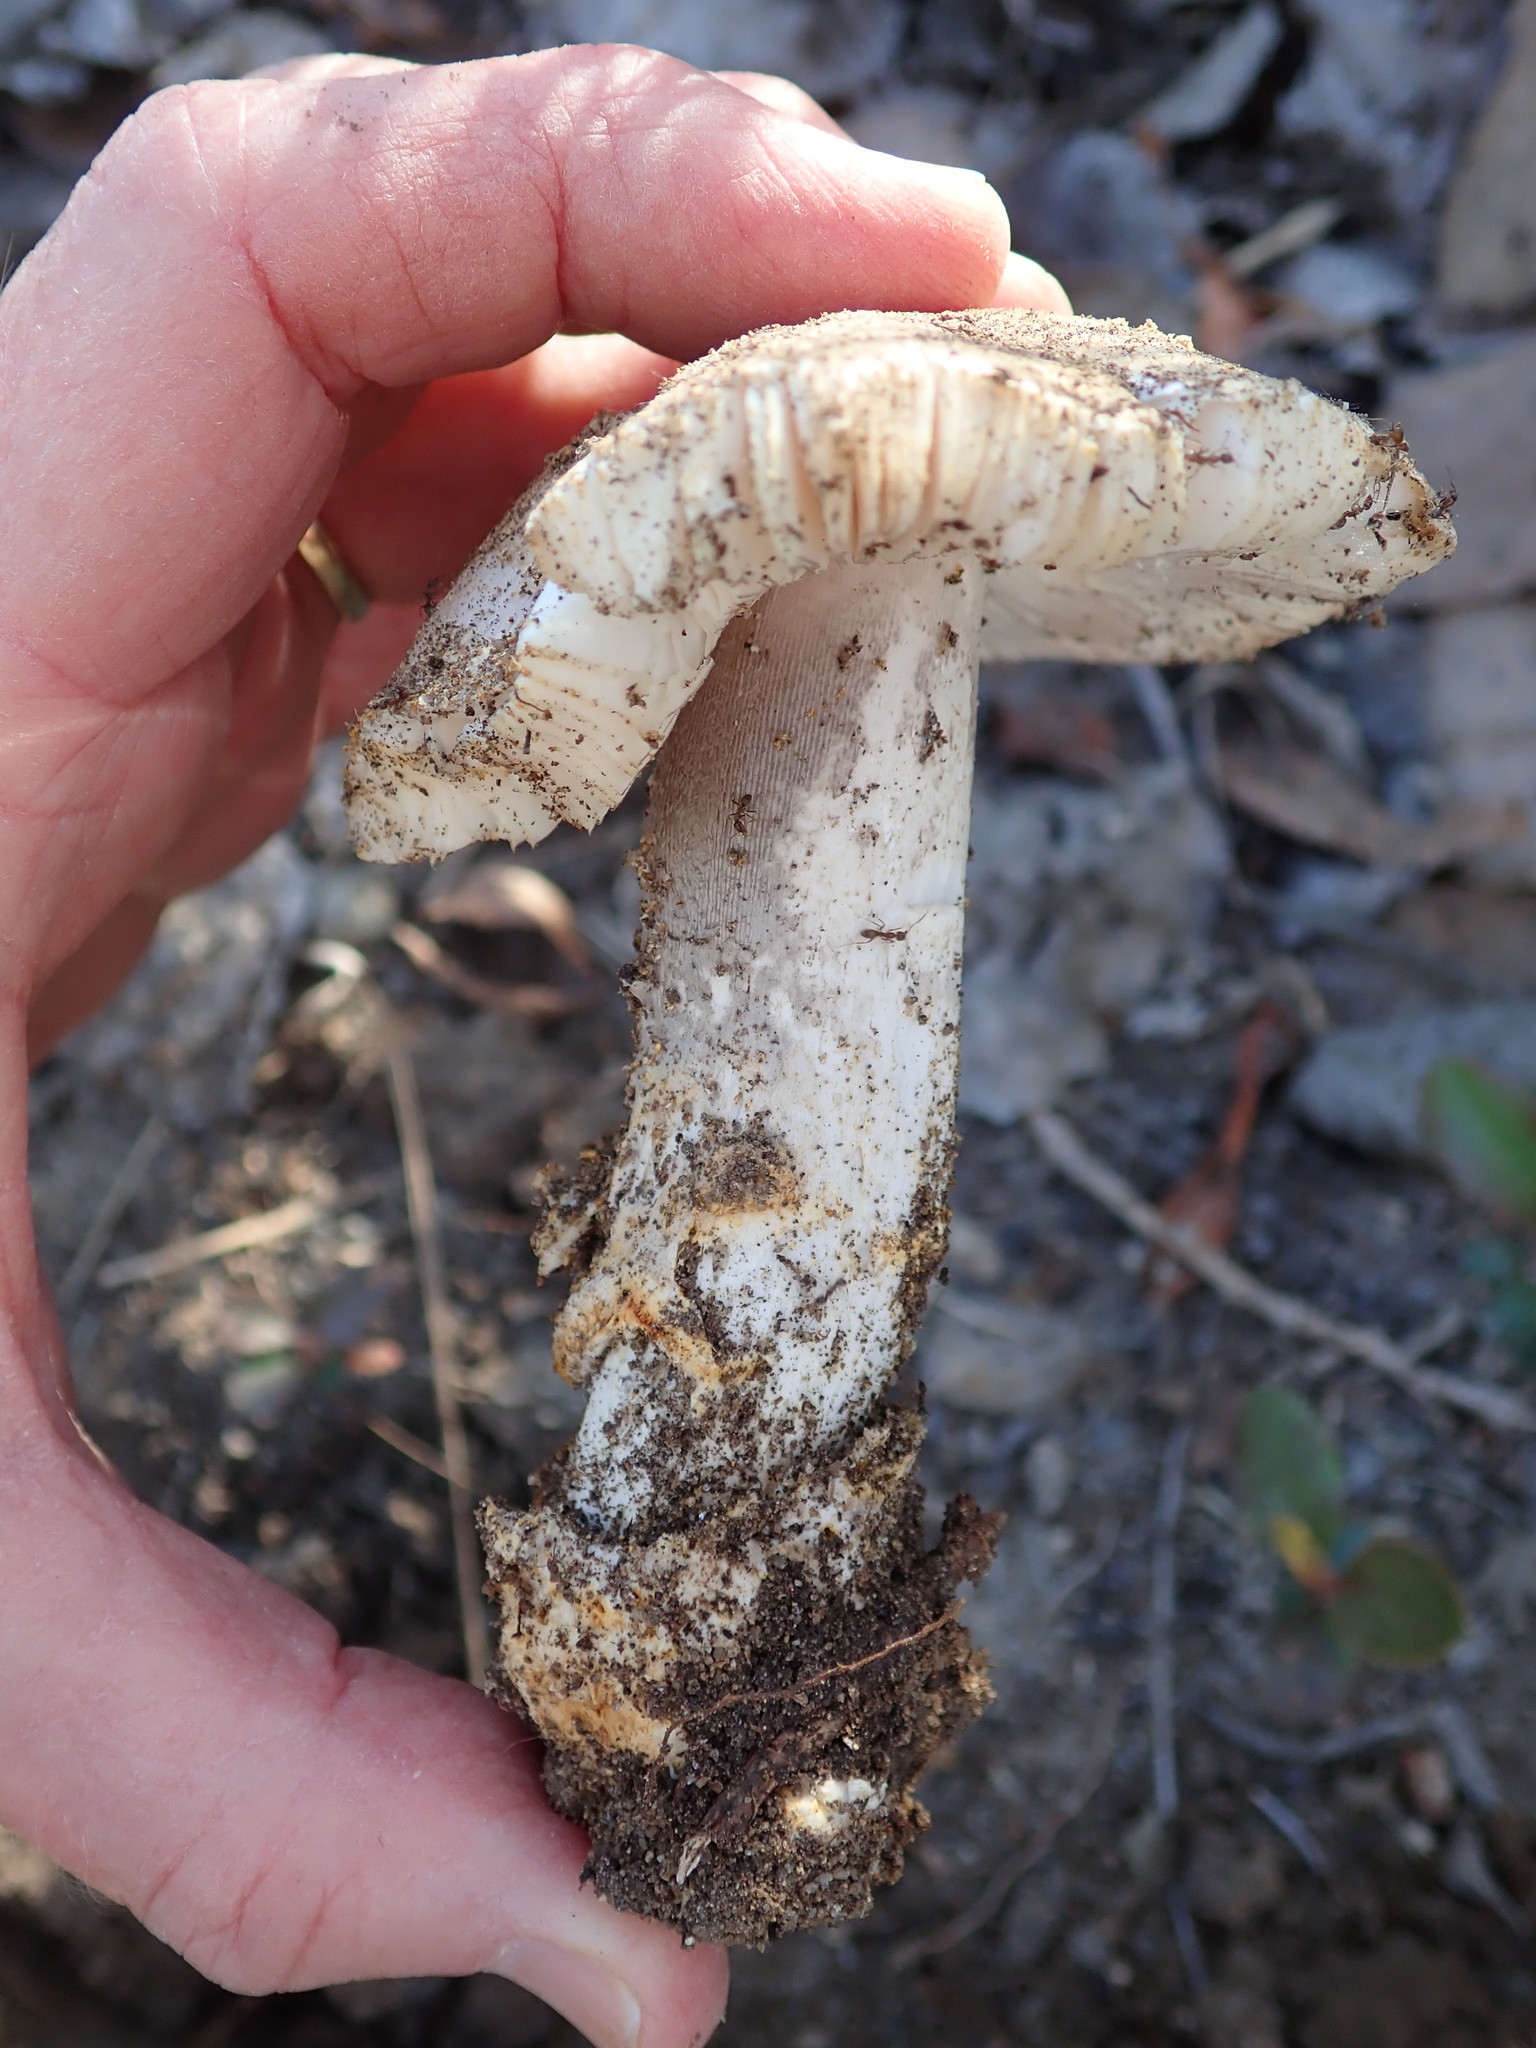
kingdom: Fungi
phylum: Basidiomycota
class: Agaricomycetes
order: Agaricales
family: Amanitaceae
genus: Amanita
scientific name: Amanita protecta
